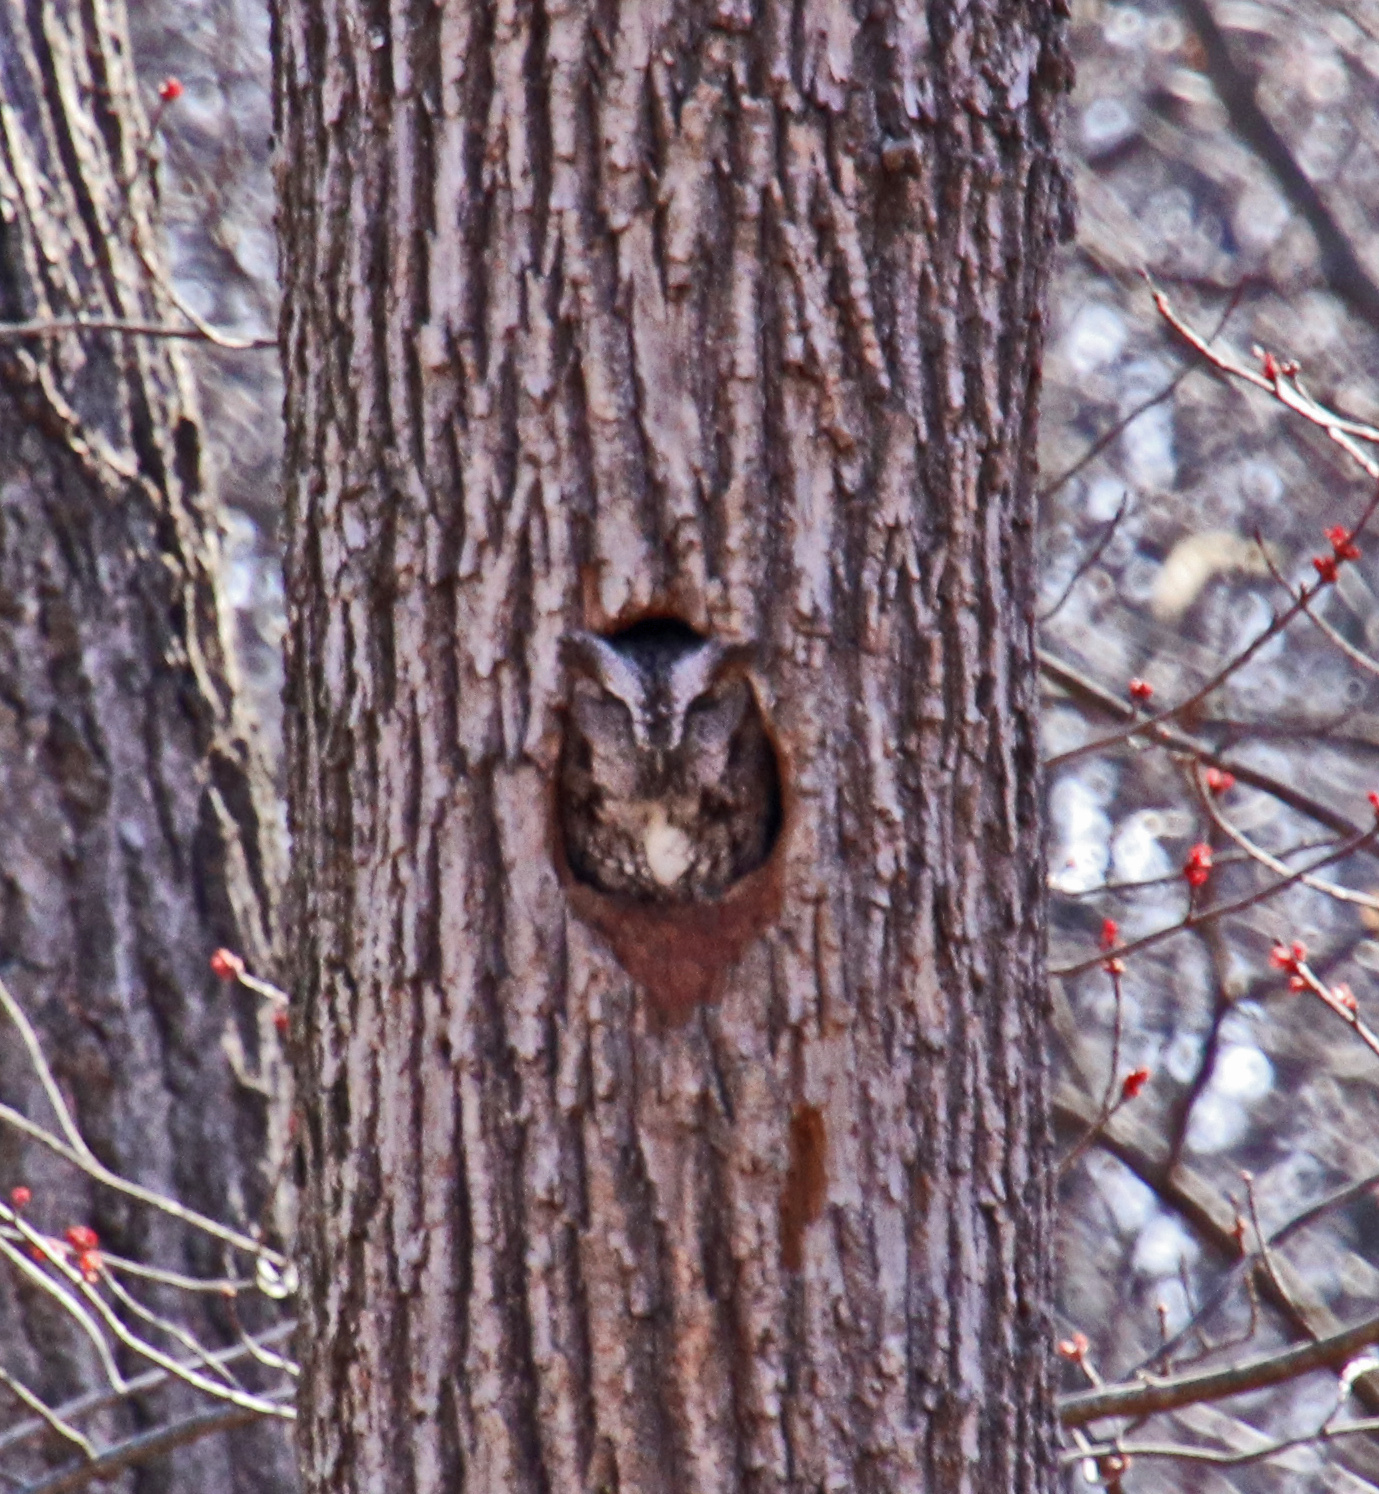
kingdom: Animalia
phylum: Chordata
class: Aves
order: Strigiformes
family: Strigidae
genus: Megascops
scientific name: Megascops asio
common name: Eastern screech-owl
